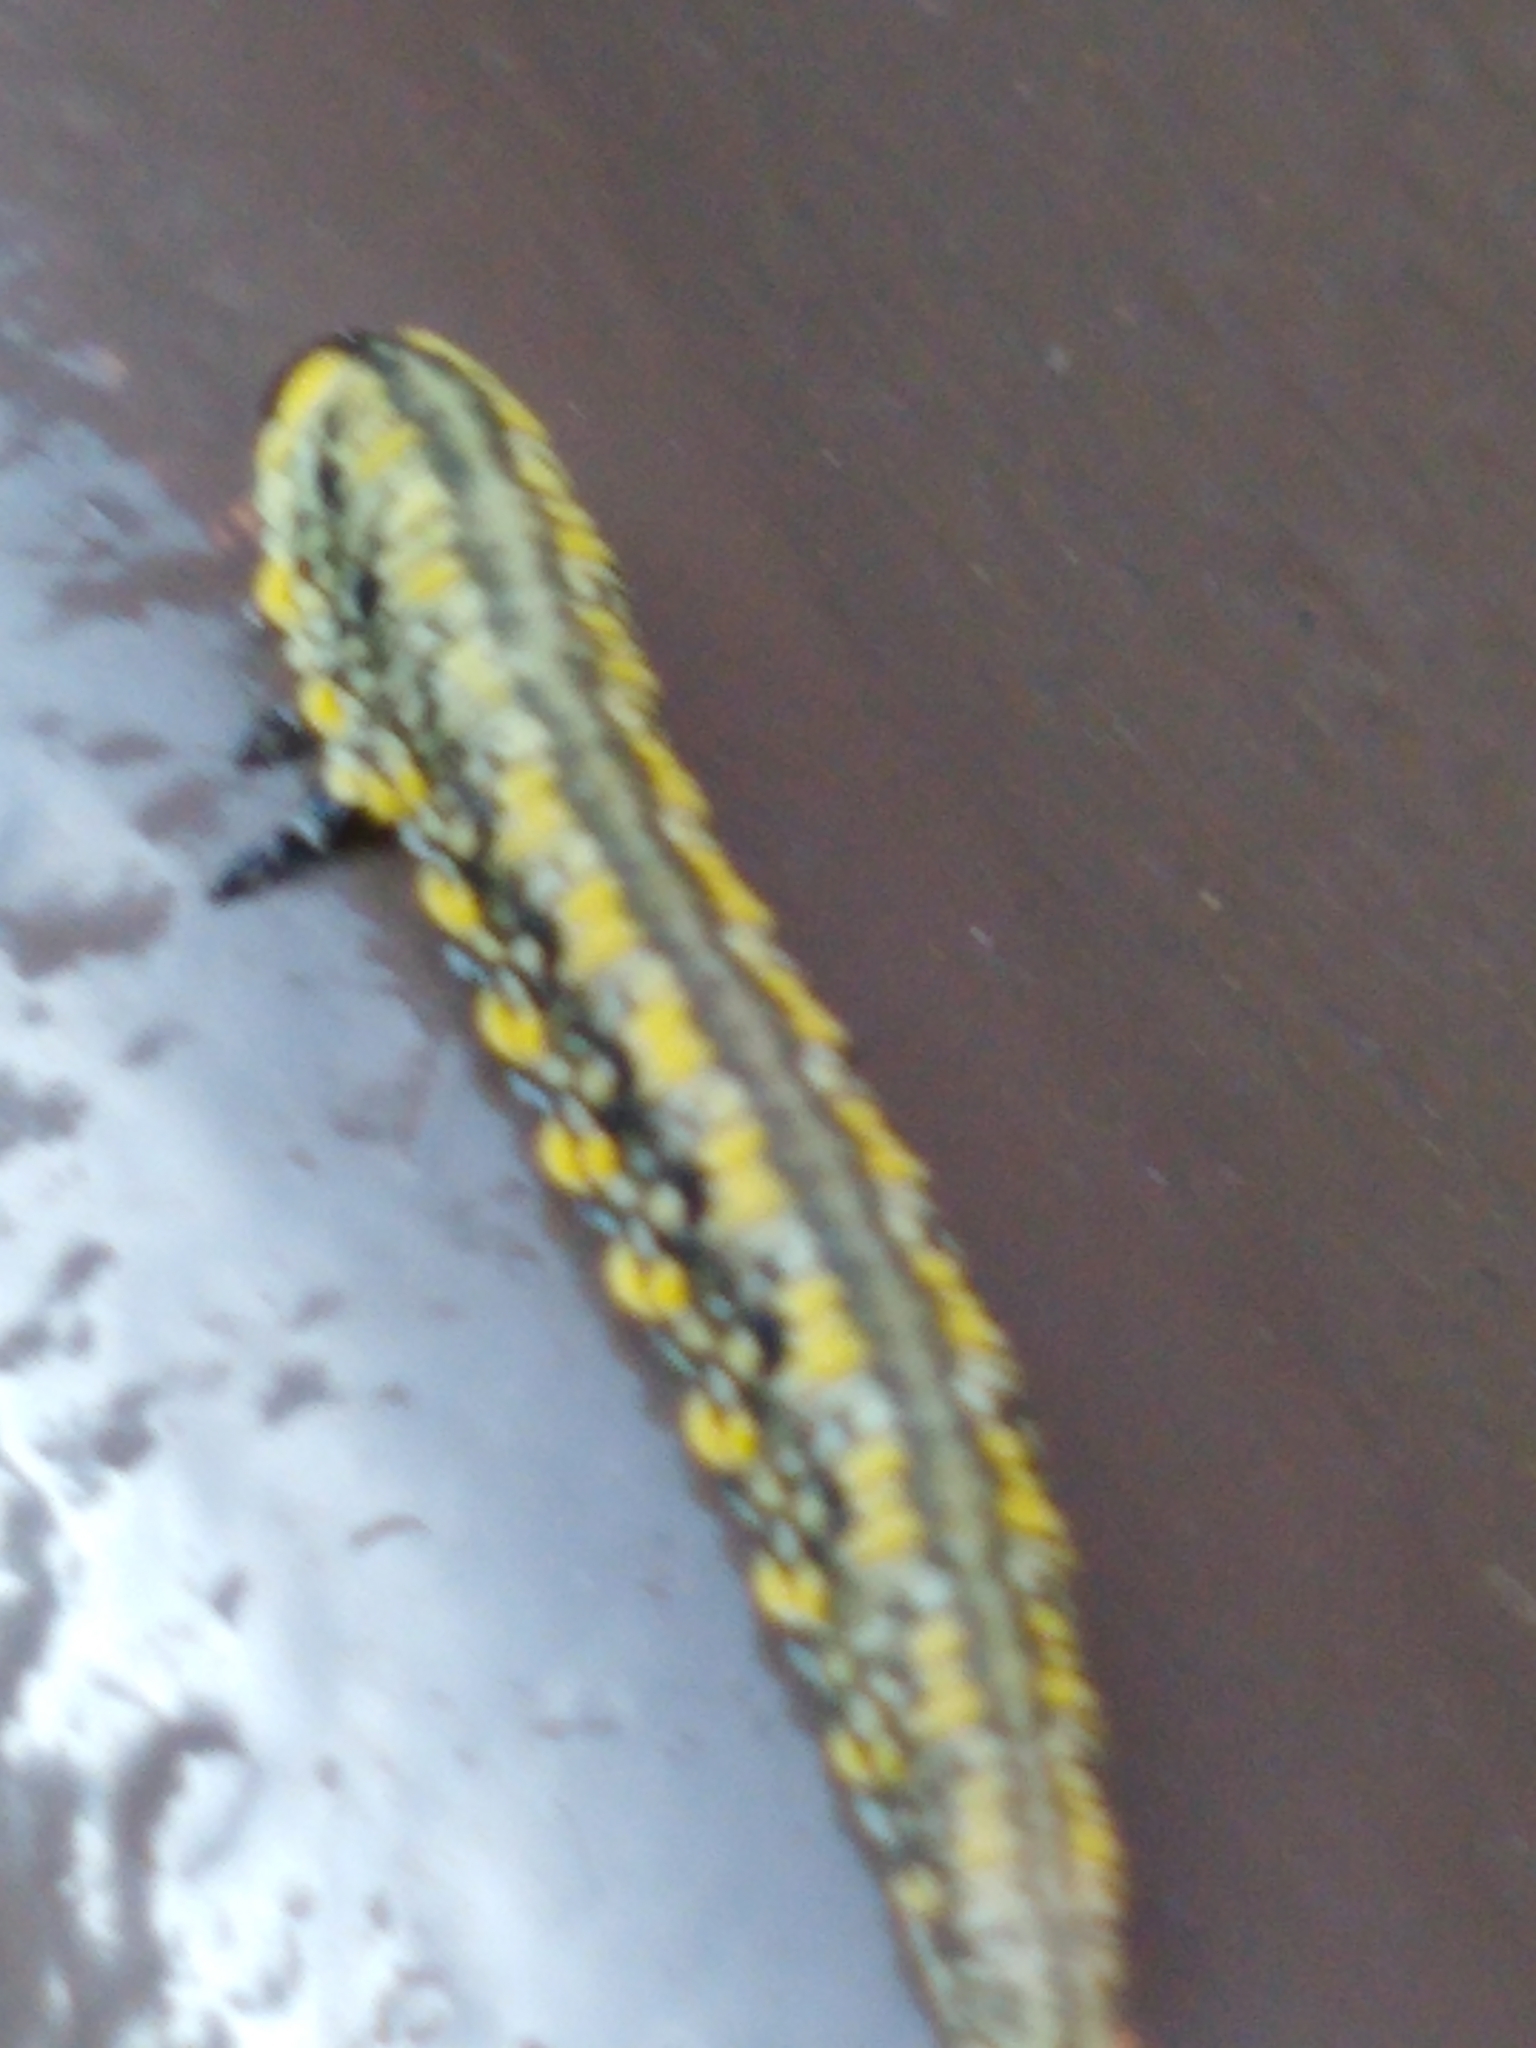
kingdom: Animalia
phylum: Arthropoda
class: Insecta
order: Hymenoptera
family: Diprionidae
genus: Diprion
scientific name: Diprion similis
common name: Pine sawfly
